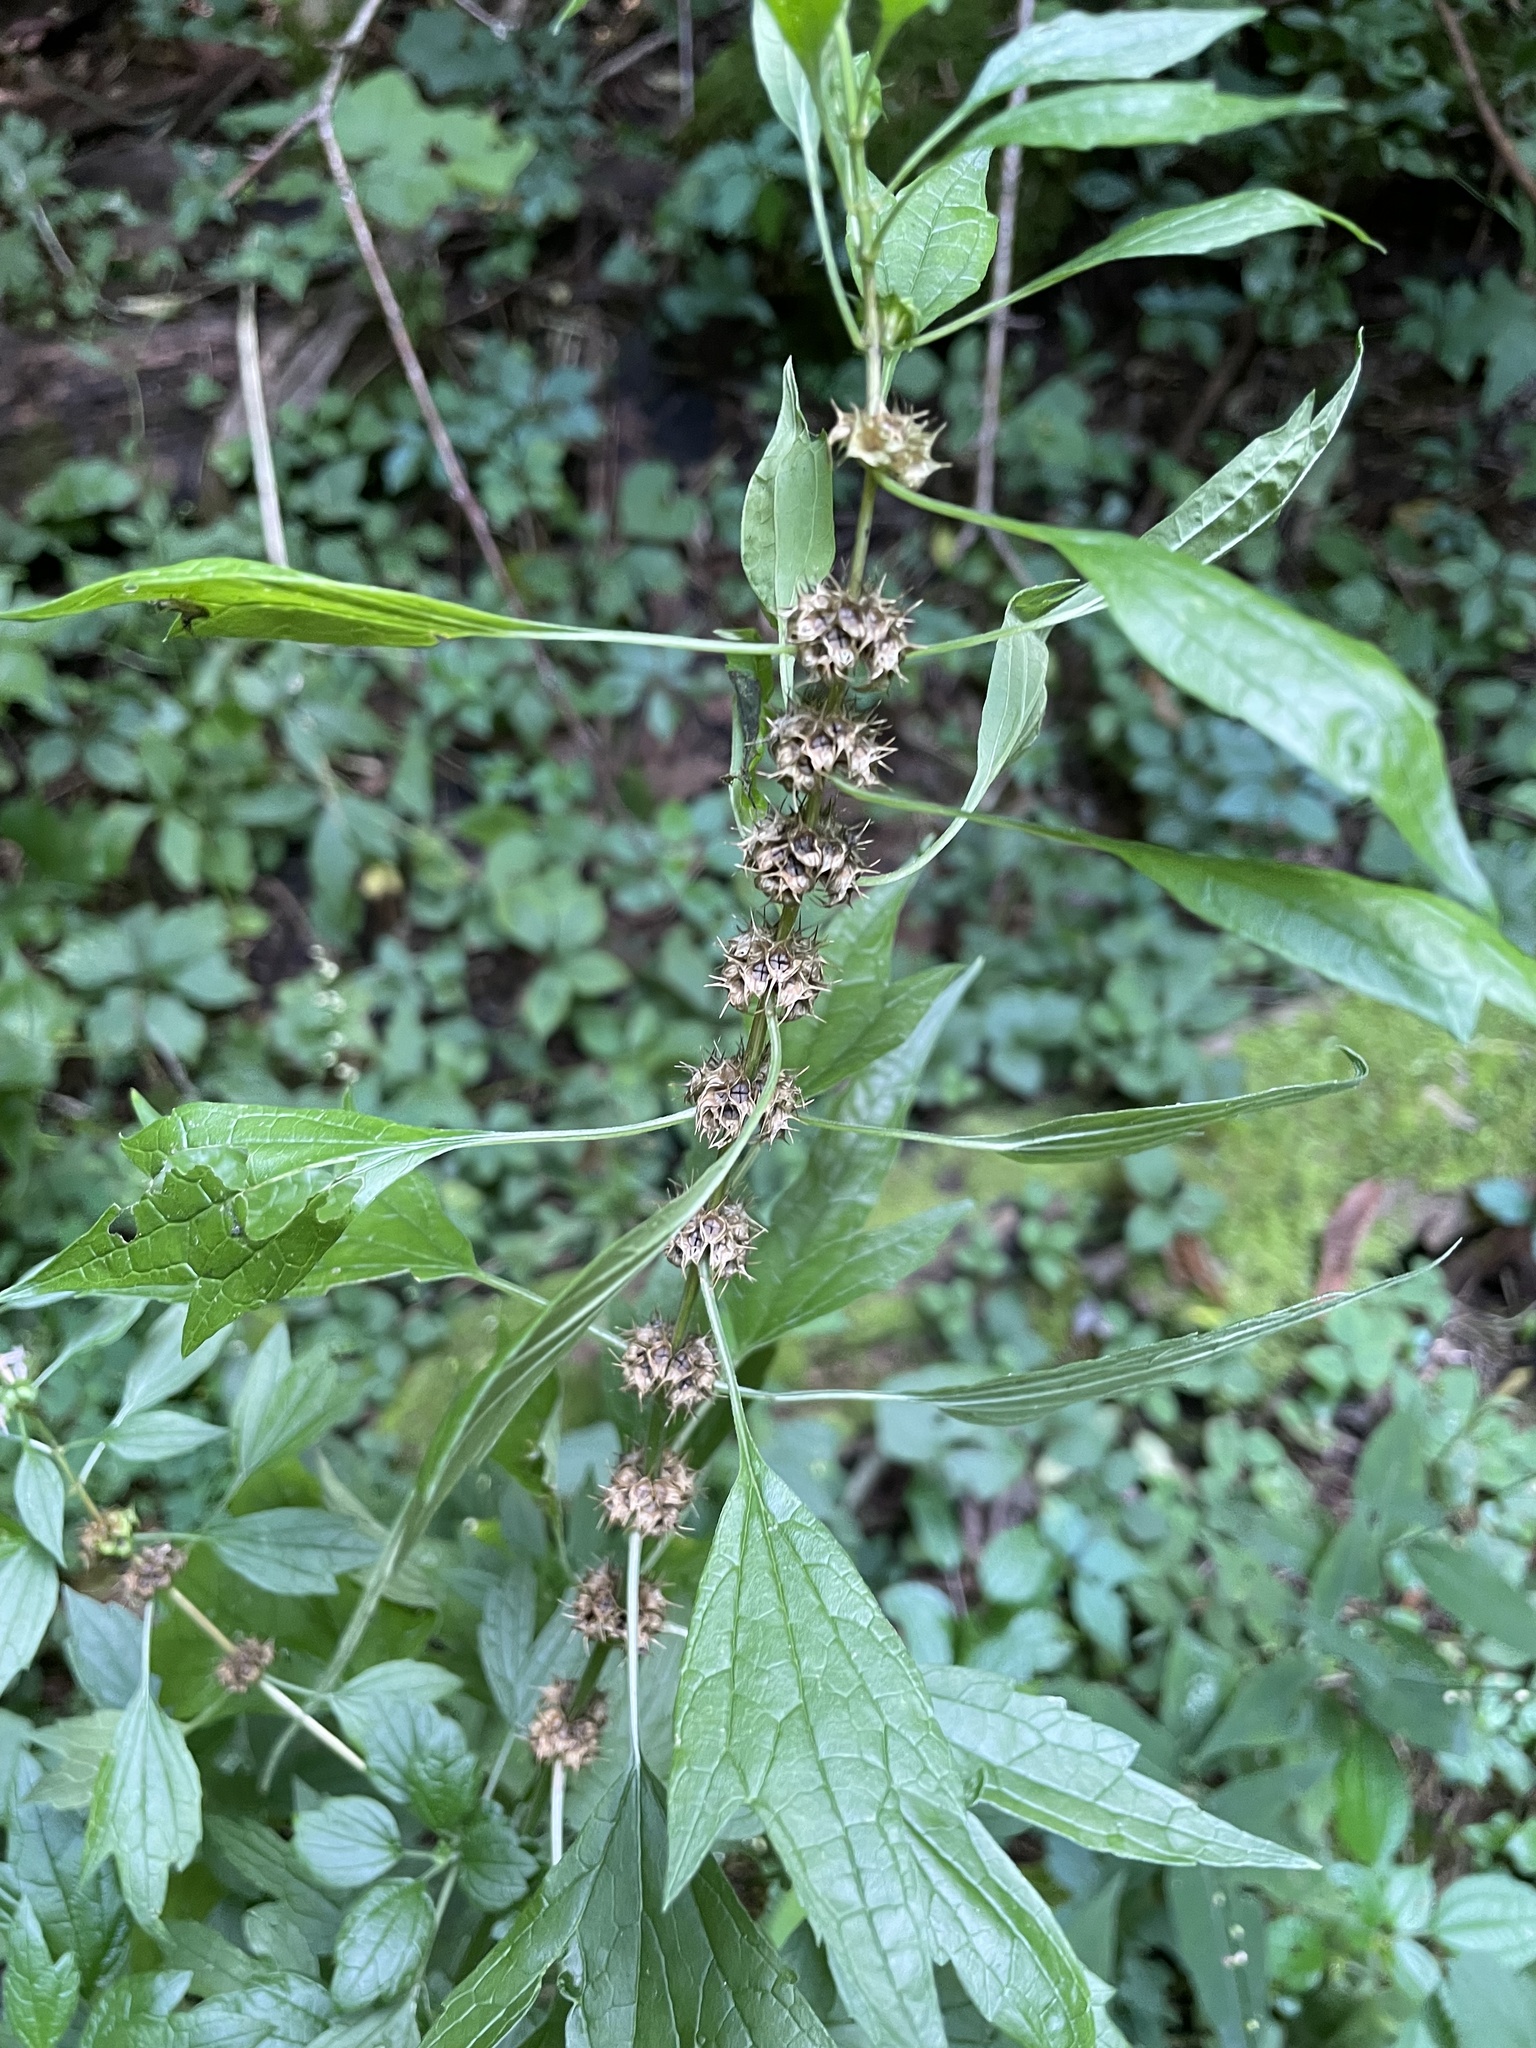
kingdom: Plantae
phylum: Tracheophyta
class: Magnoliopsida
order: Lamiales
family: Lamiaceae
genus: Leonurus
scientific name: Leonurus cardiaca
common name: Motherwort
